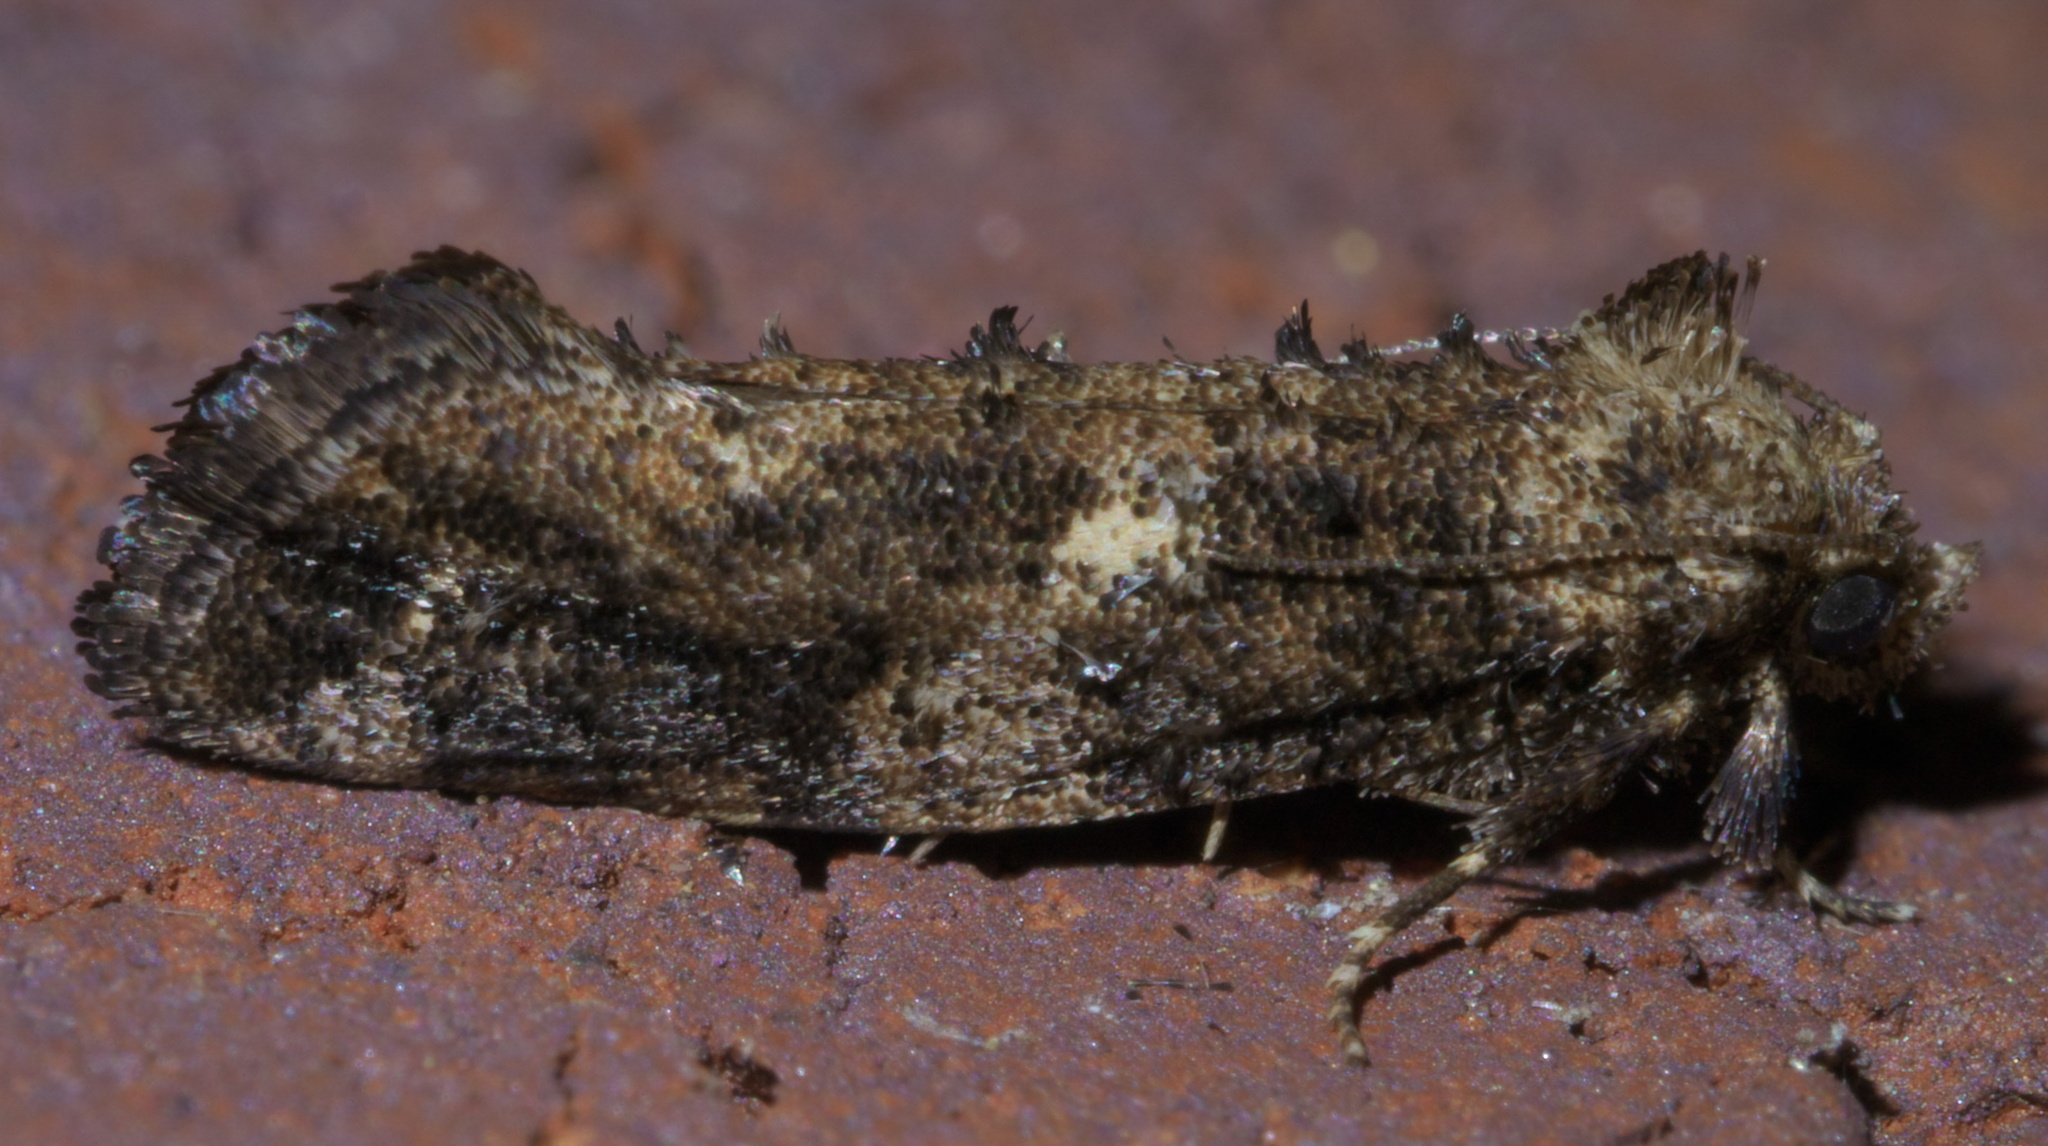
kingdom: Animalia
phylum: Arthropoda
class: Insecta
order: Lepidoptera
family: Tineidae
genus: Acrolophus
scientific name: Acrolophus cressoni
